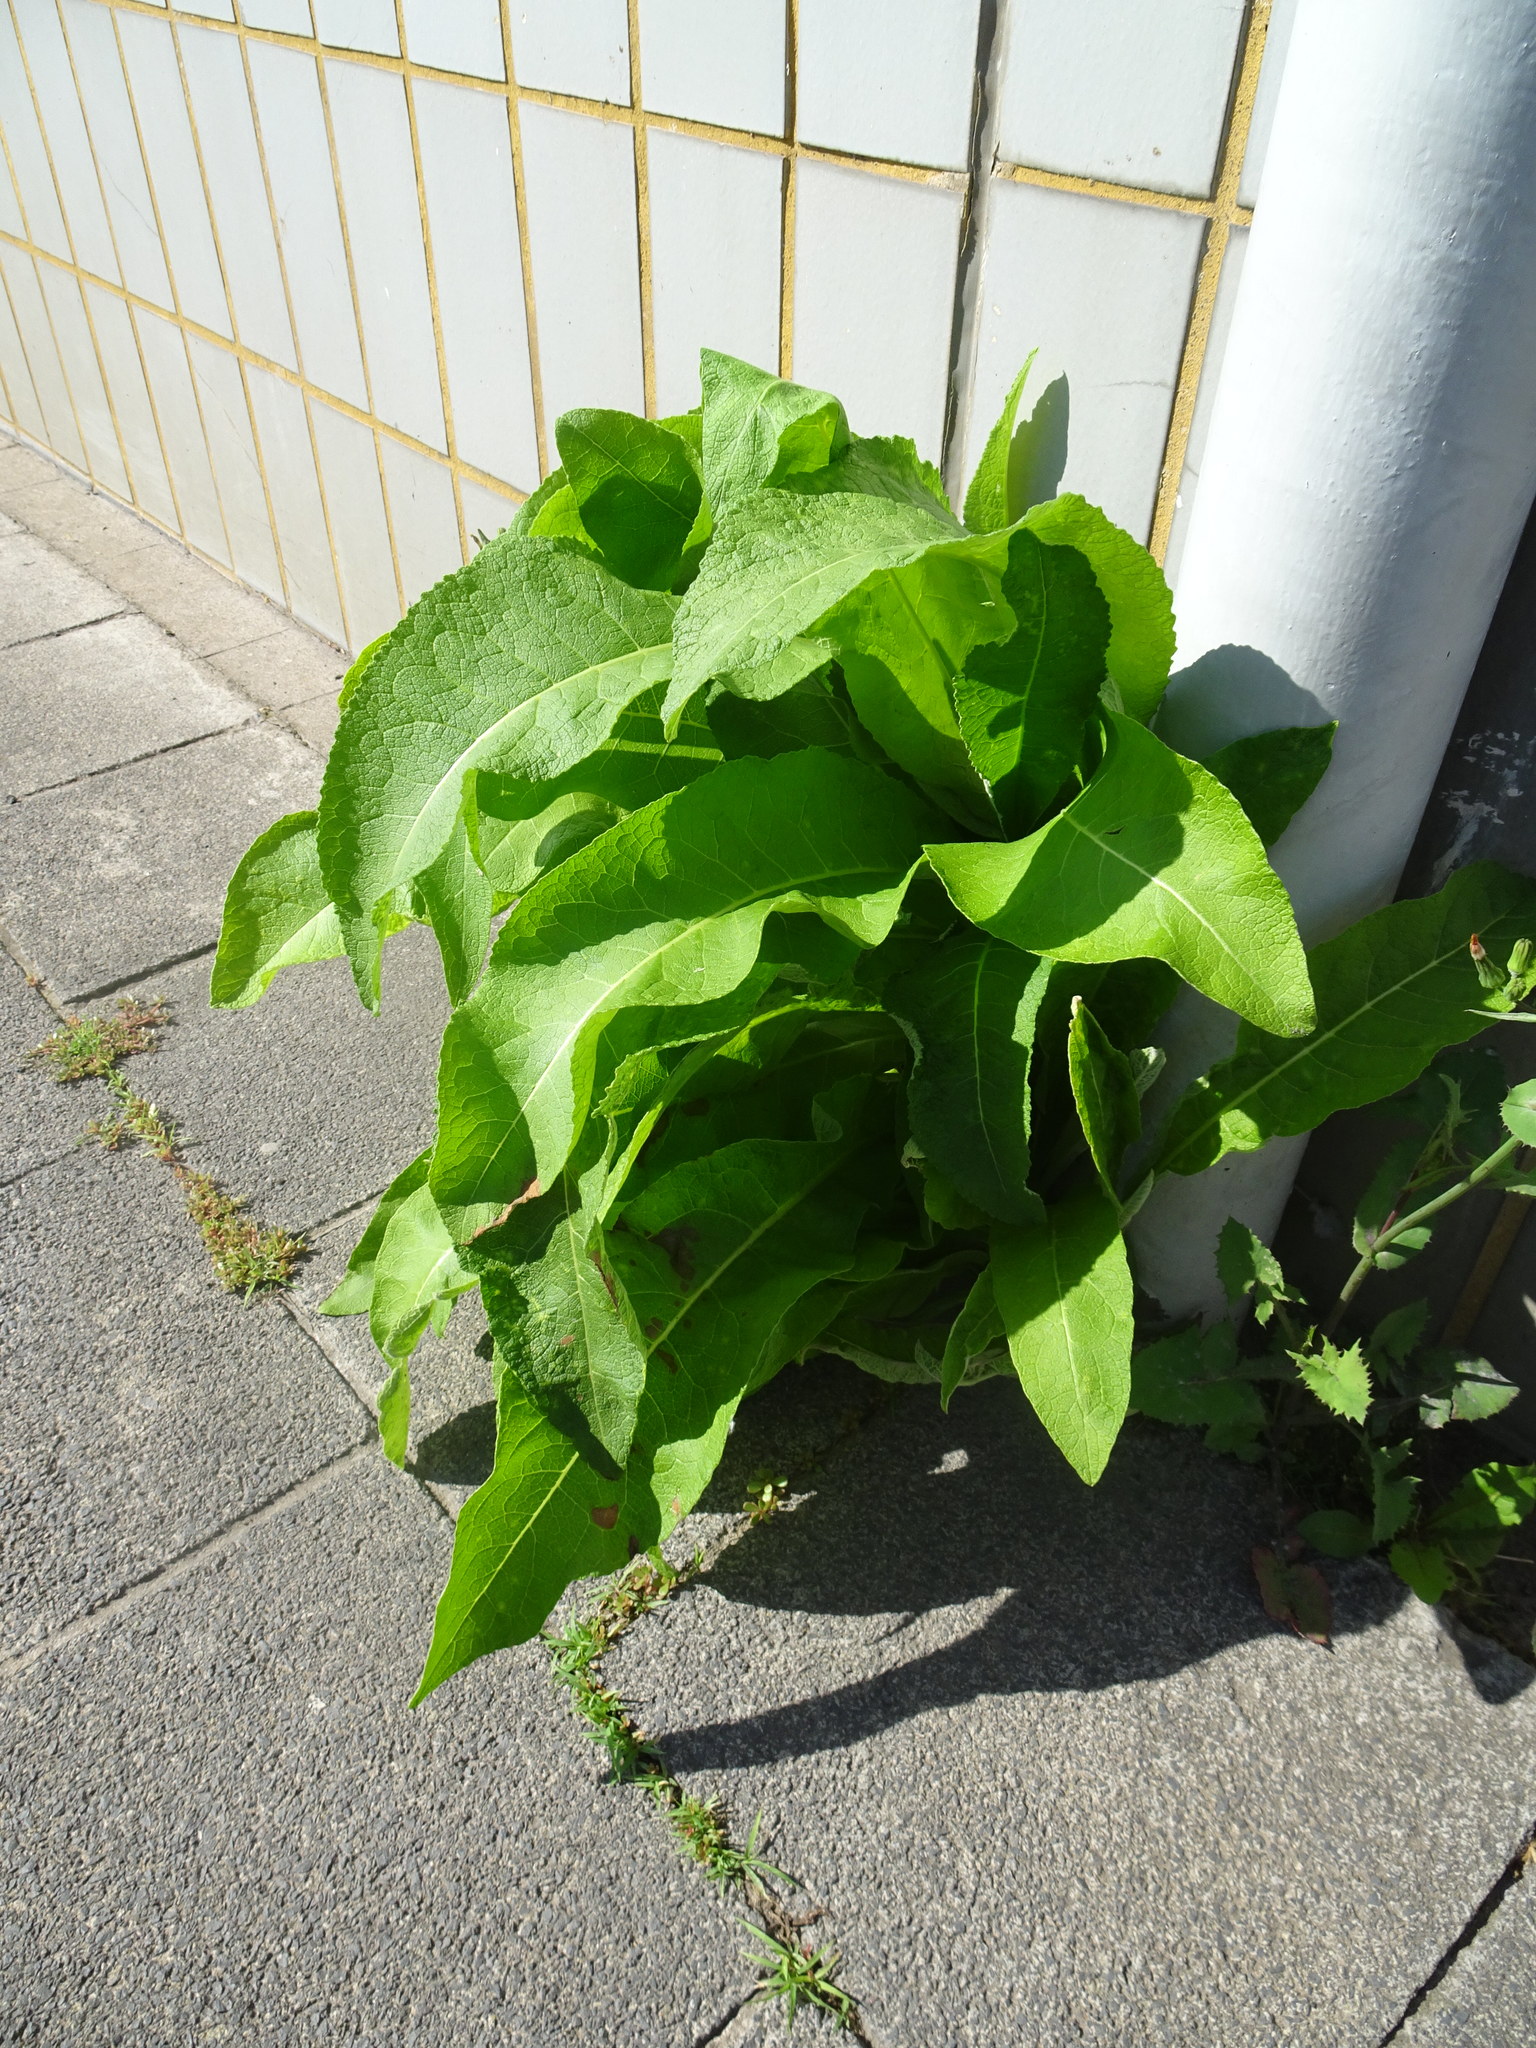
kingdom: Plantae
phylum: Tracheophyta
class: Magnoliopsida
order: Asterales
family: Asteraceae
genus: Inula
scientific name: Inula helenium
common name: Elecampane
